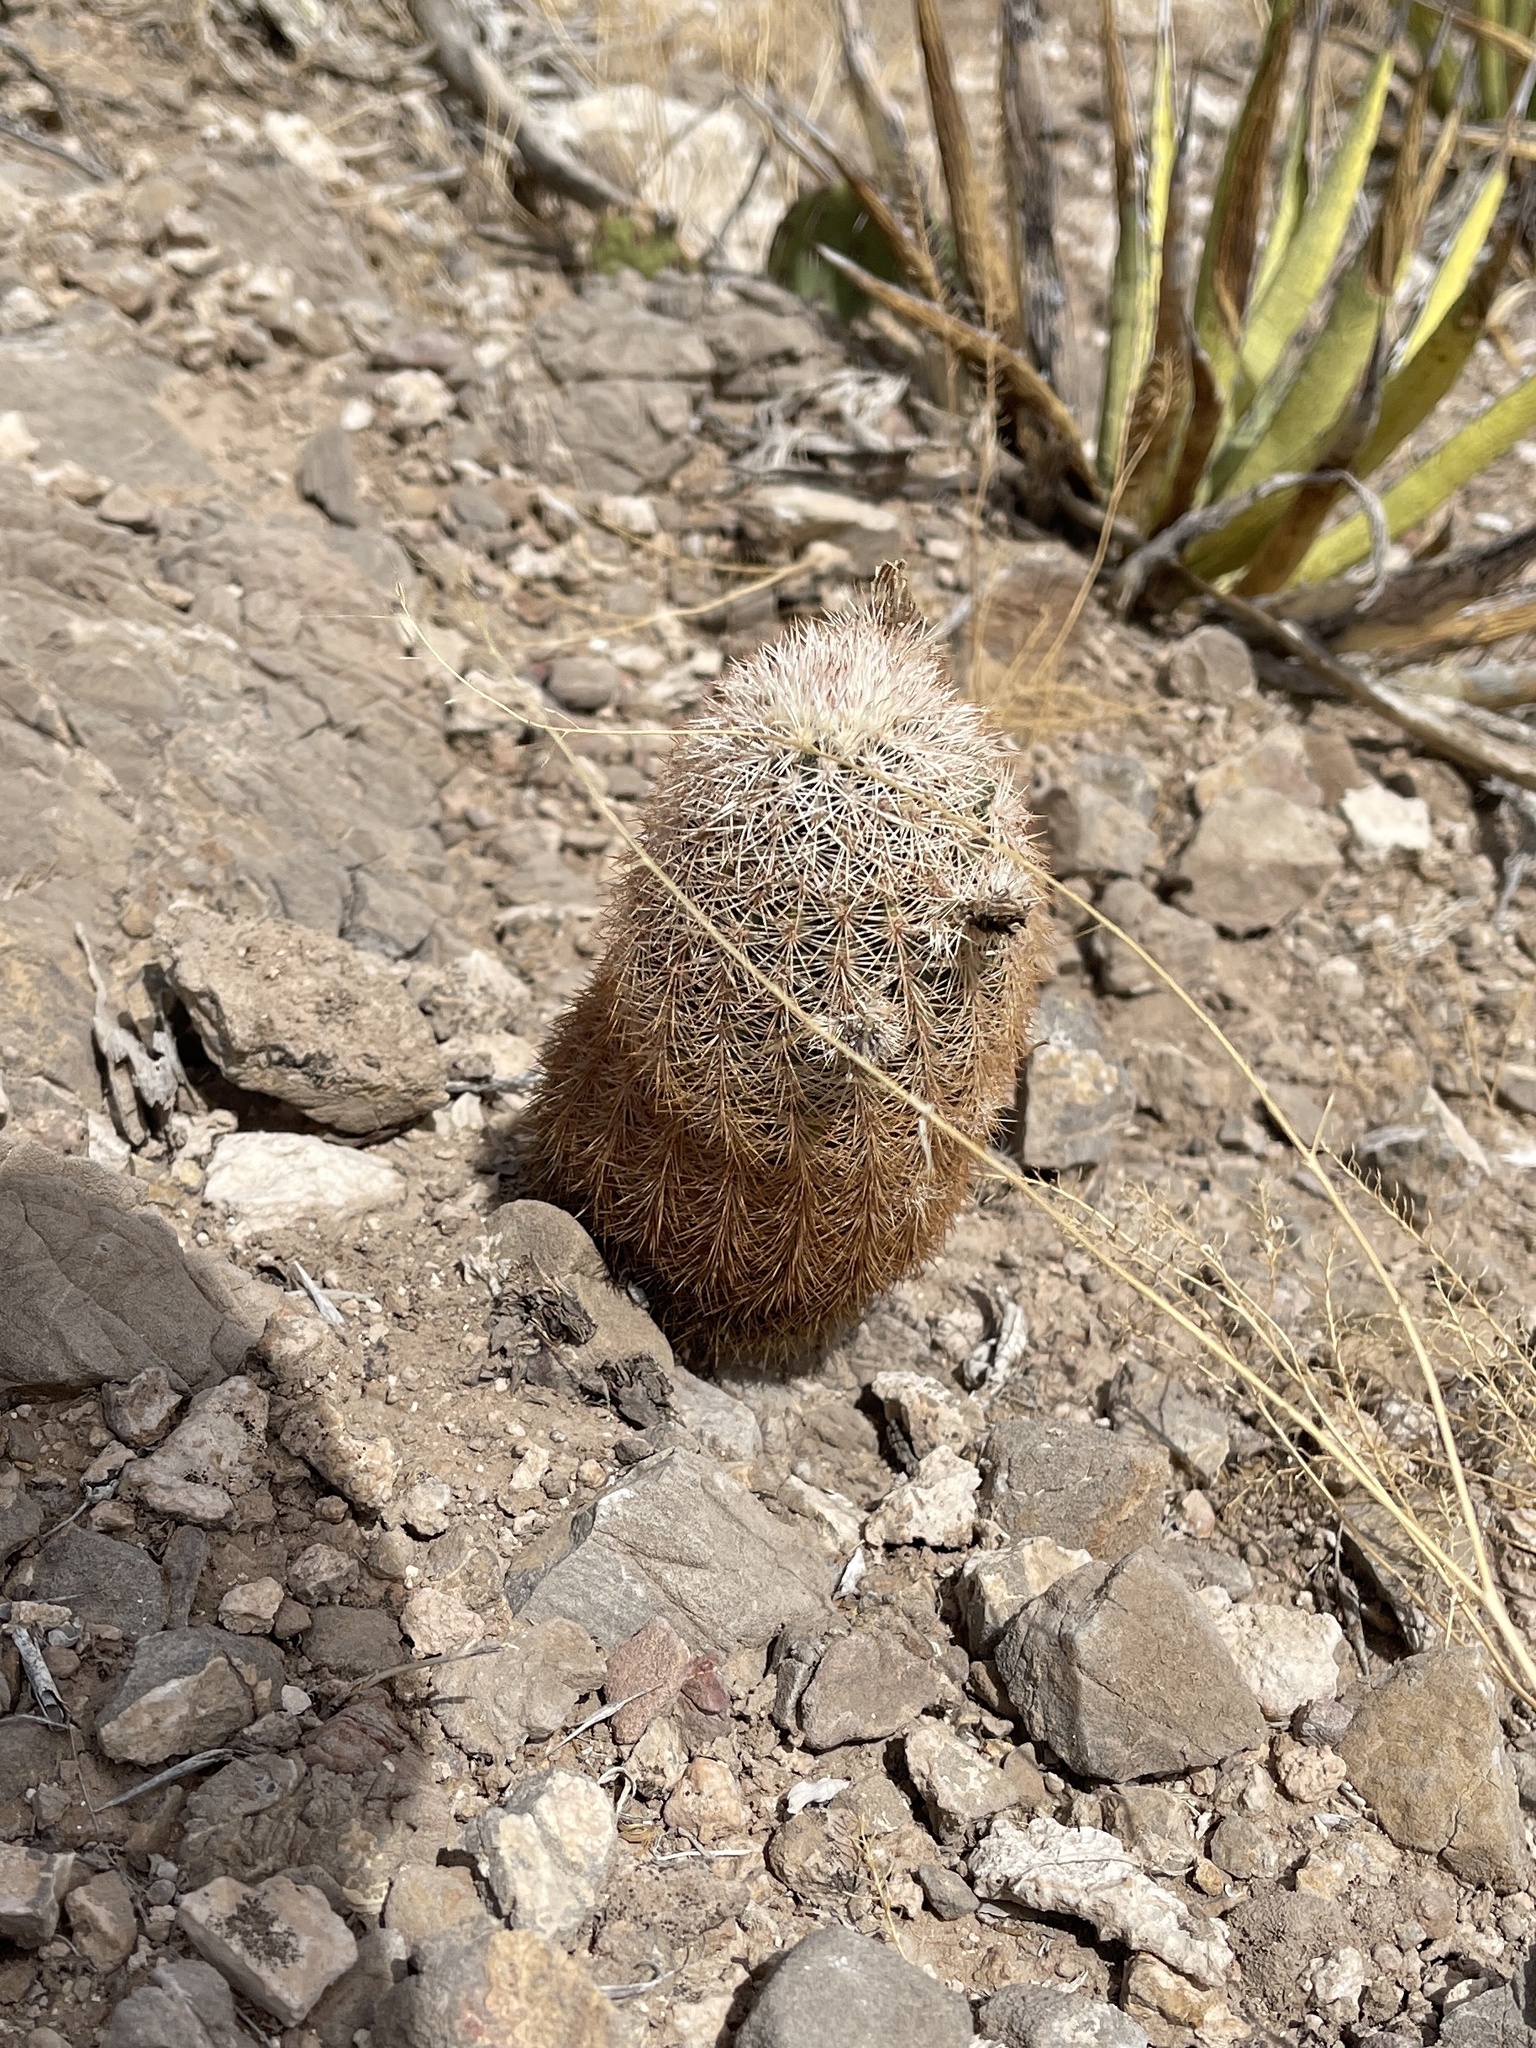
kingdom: Plantae
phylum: Tracheophyta
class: Magnoliopsida
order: Caryophyllales
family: Cactaceae
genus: Echinocereus
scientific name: Echinocereus dasyacanthus
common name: Spiny hedgehog cactus
